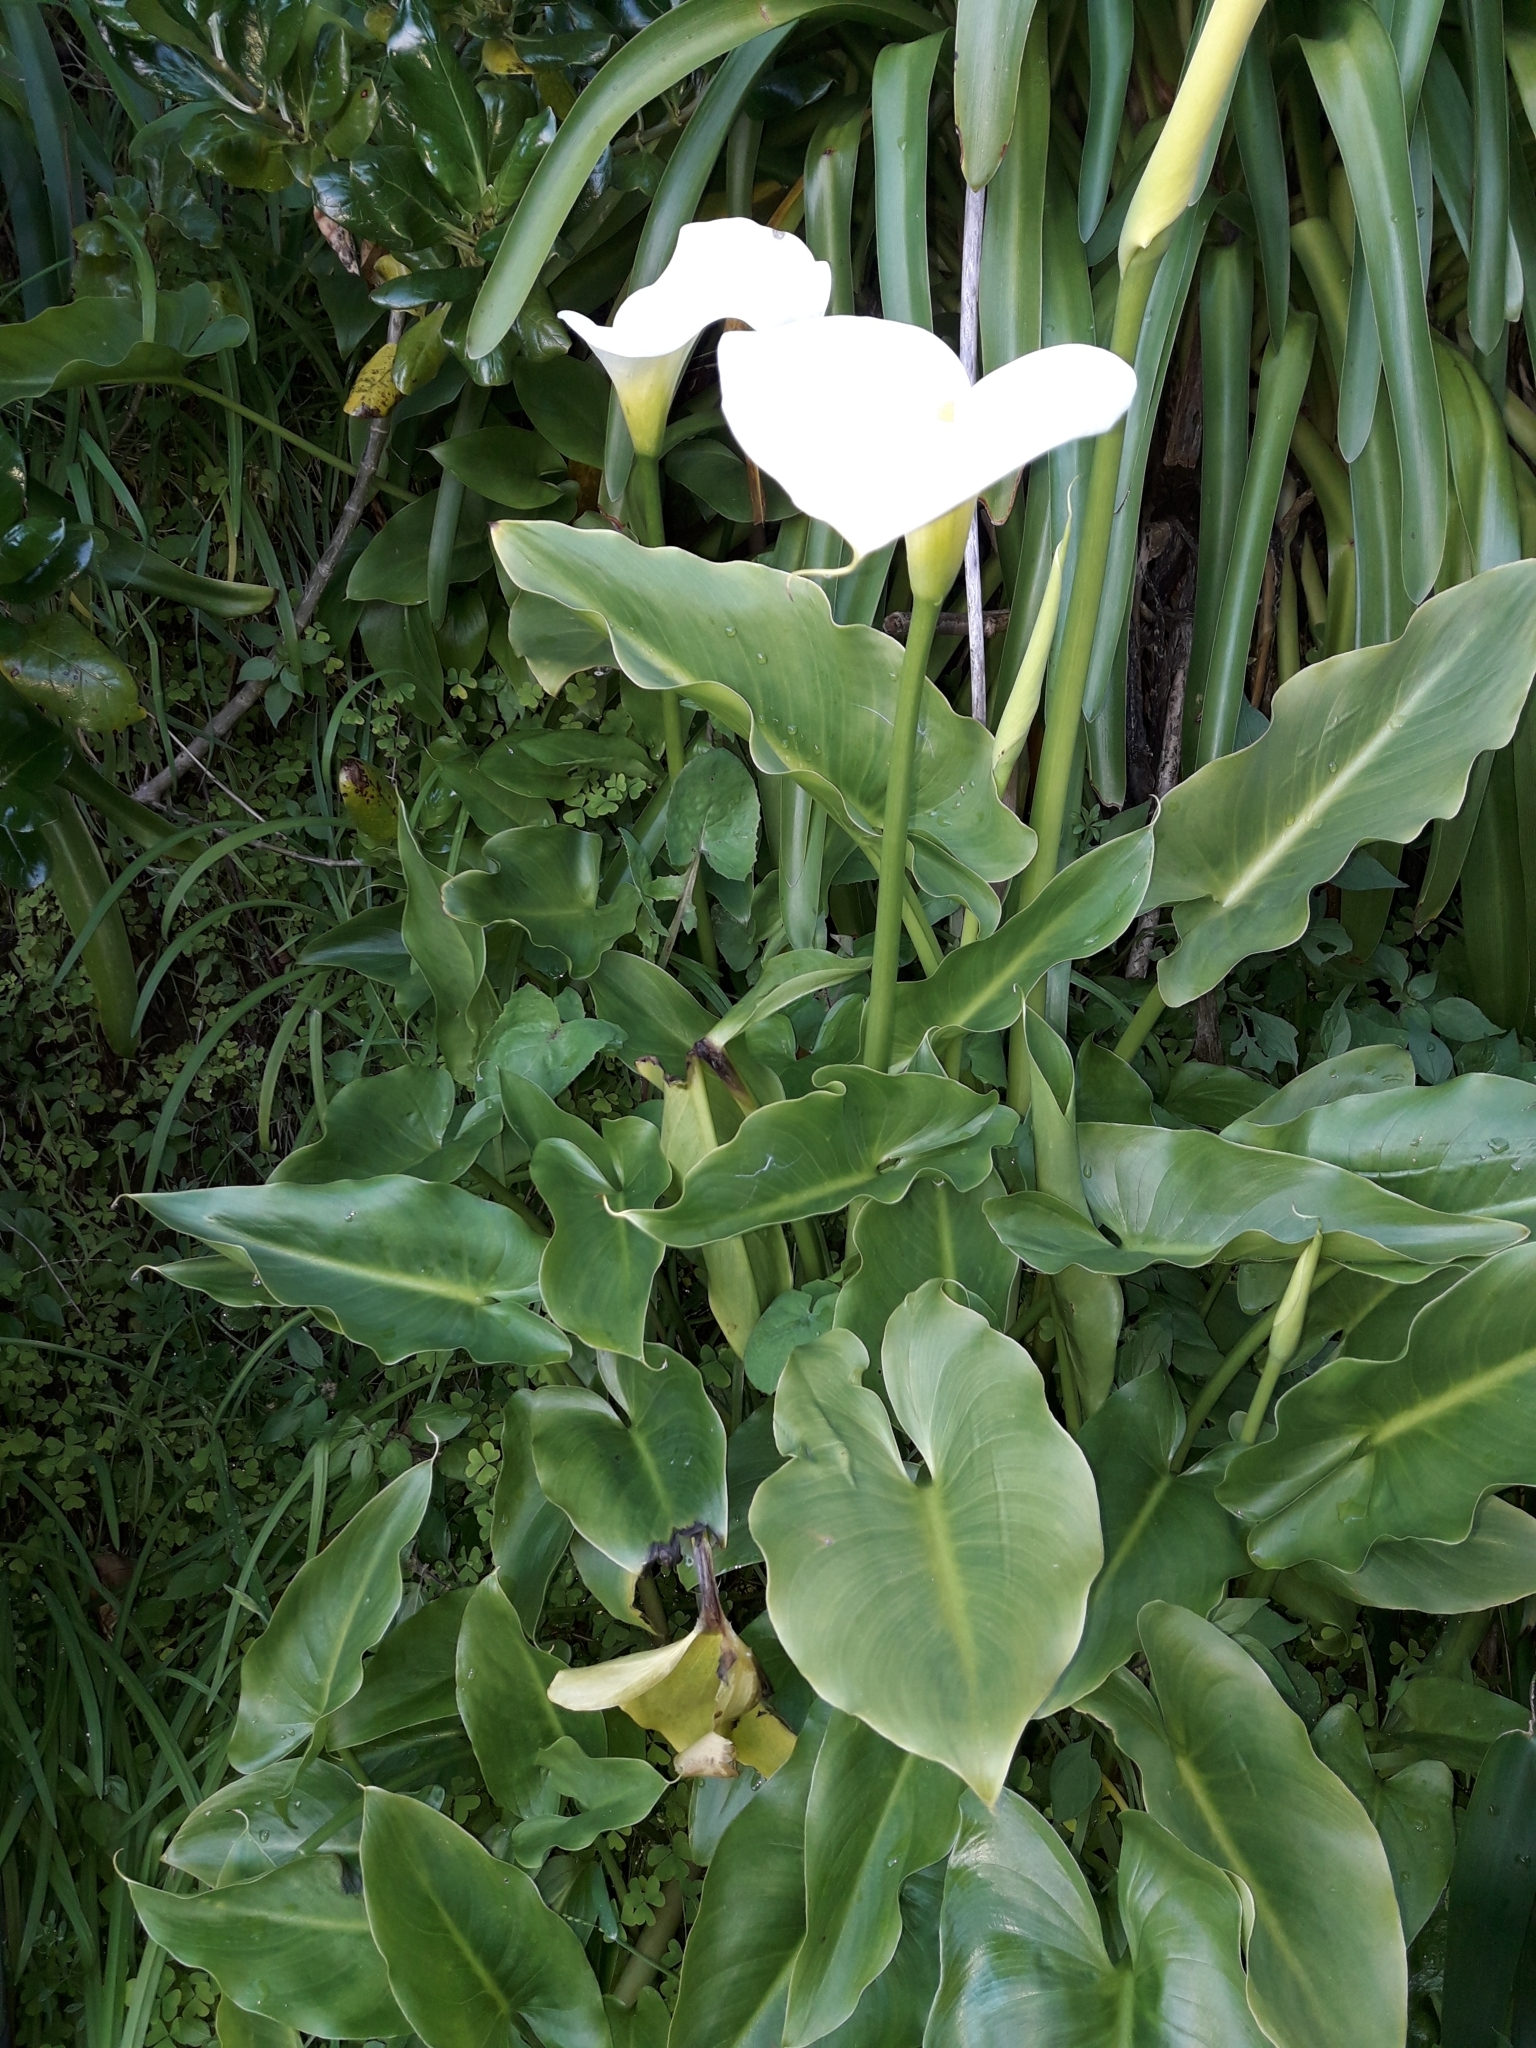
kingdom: Plantae
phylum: Tracheophyta
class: Liliopsida
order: Alismatales
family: Araceae
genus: Zantedeschia
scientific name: Zantedeschia aethiopica
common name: Altar-lily
